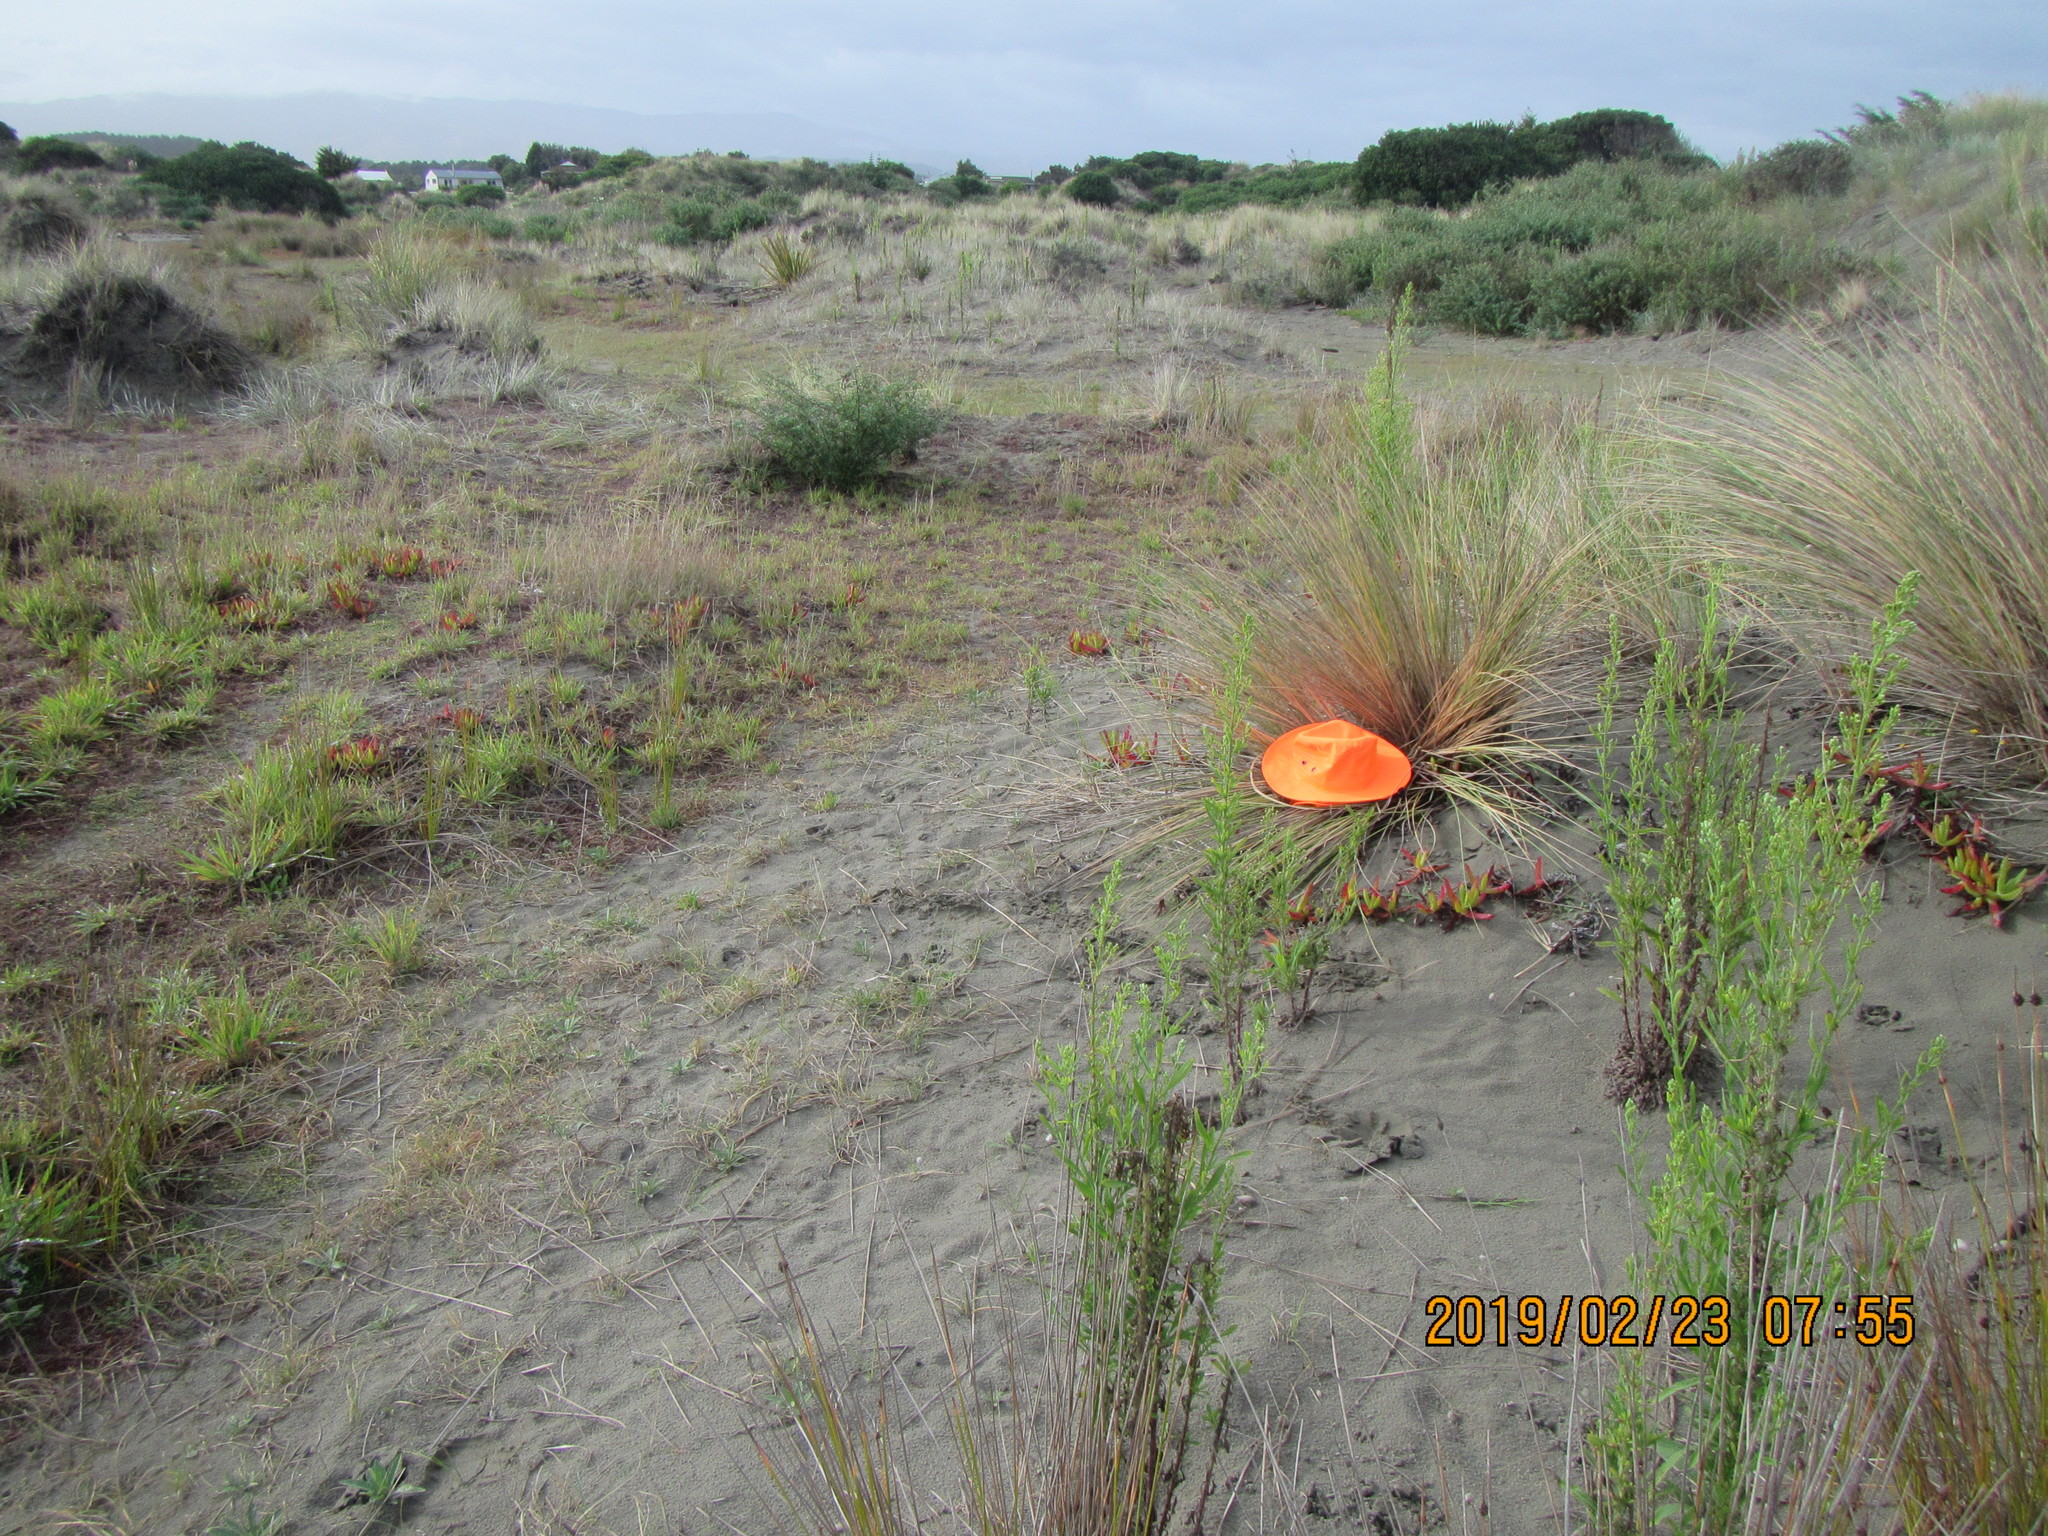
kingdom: Animalia
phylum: Arthropoda
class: Arachnida
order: Opiliones
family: Phalangiidae
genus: Phalangium
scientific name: Phalangium opilio
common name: Daddy longleg
